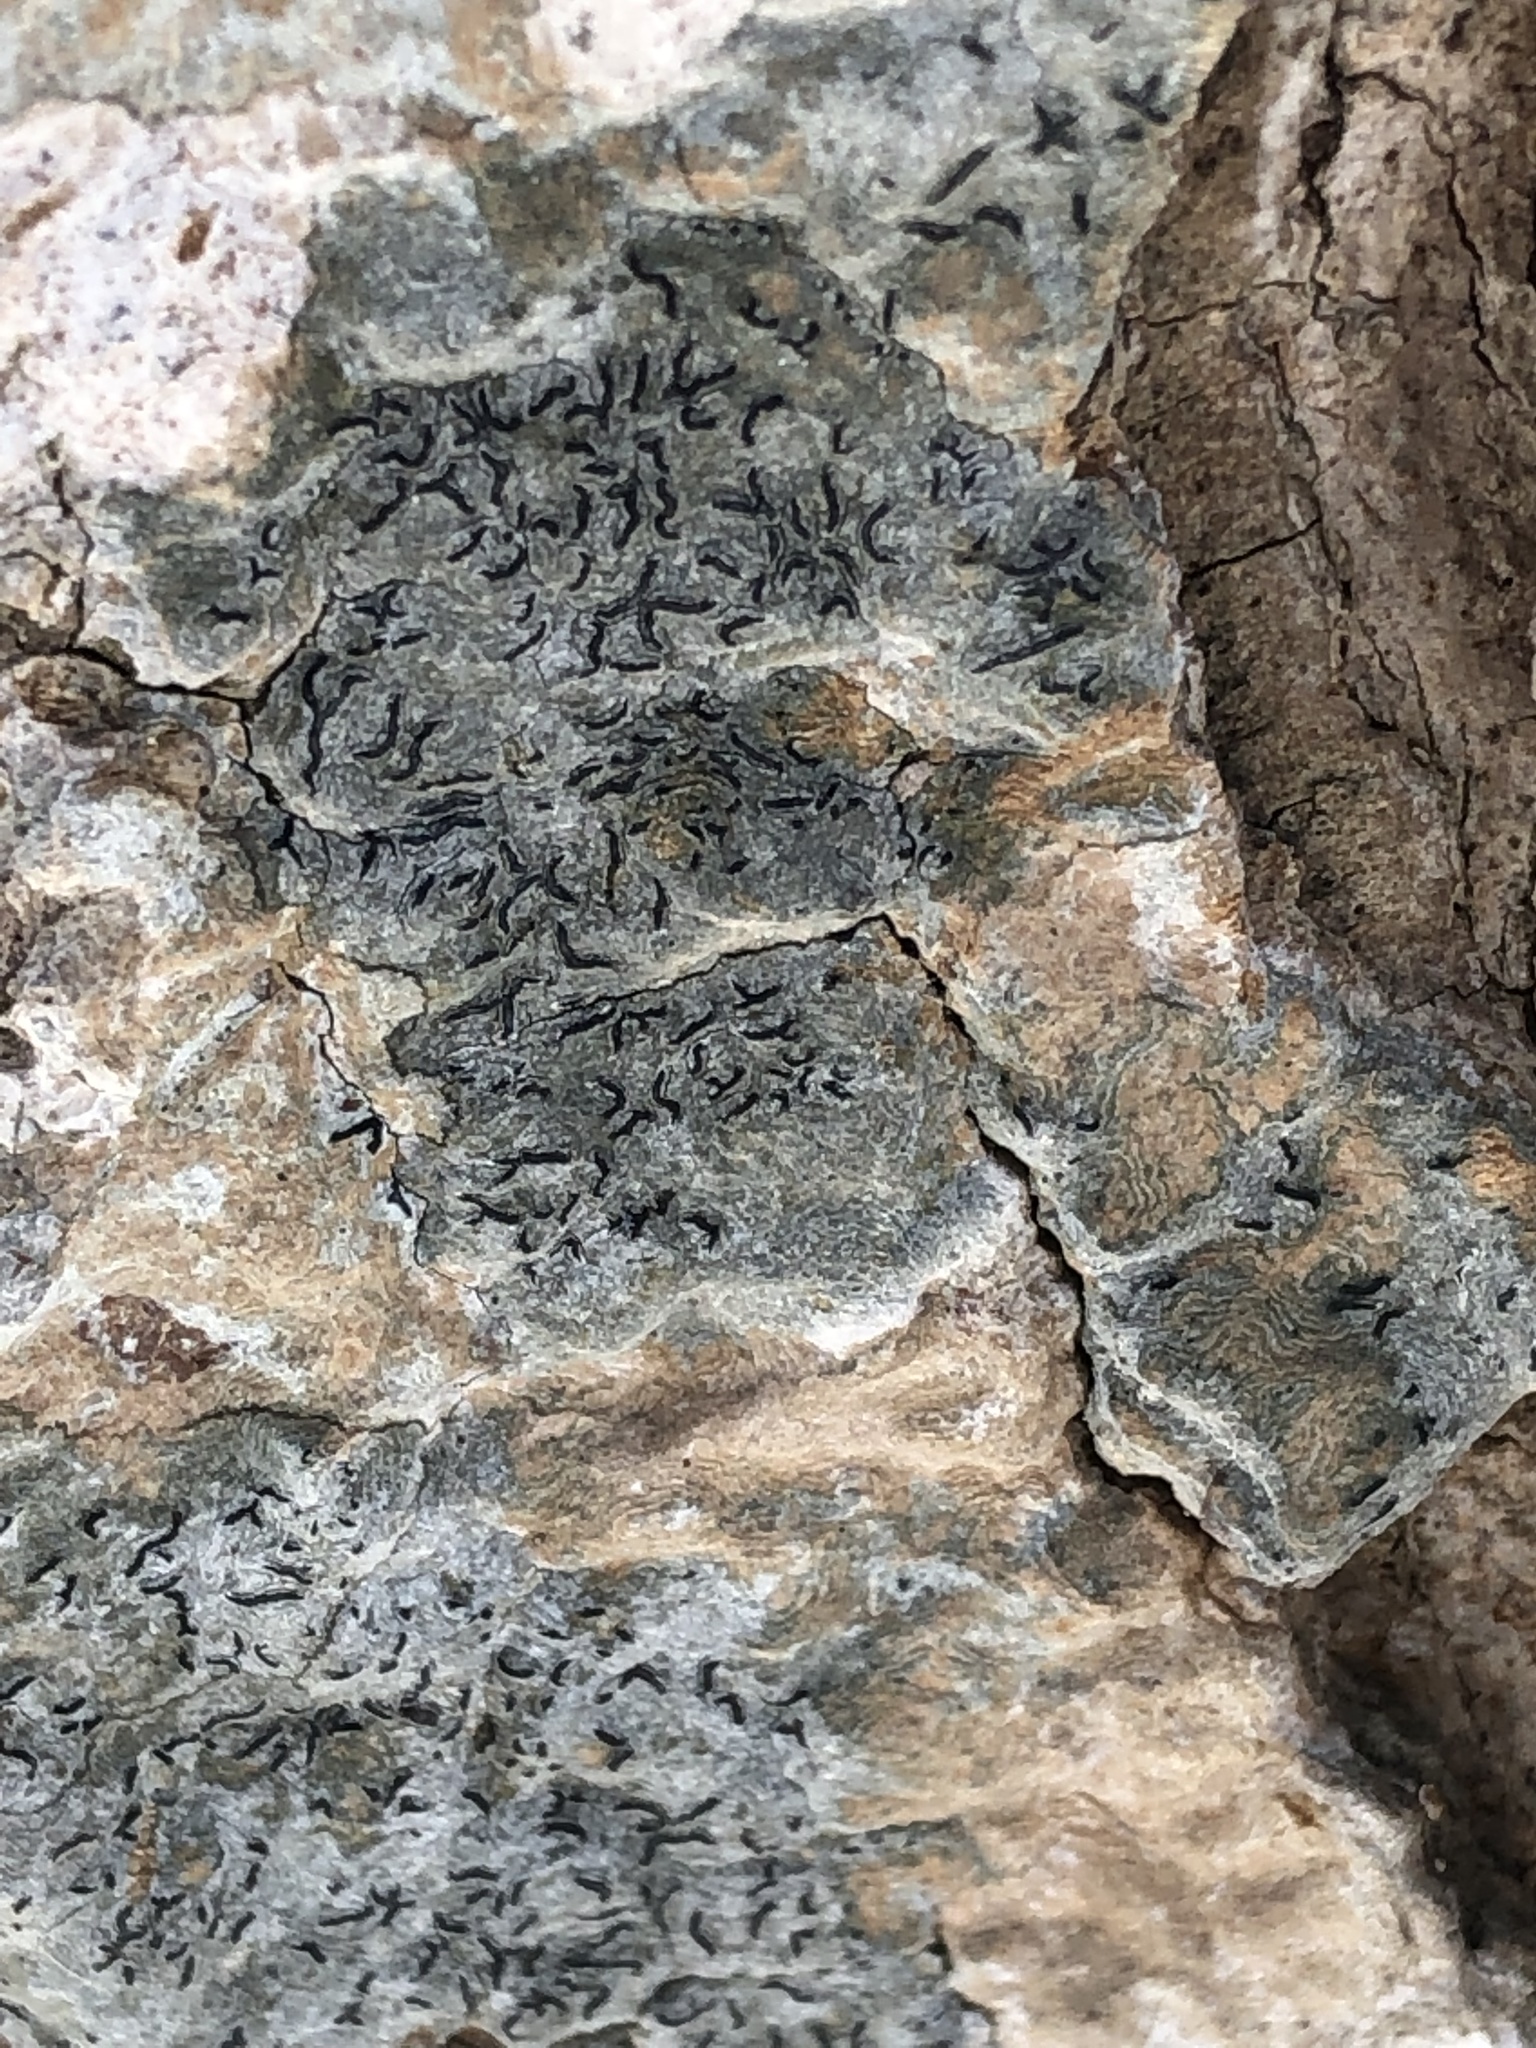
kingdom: Fungi
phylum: Ascomycota
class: Lecanoromycetes
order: Ostropales
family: Graphidaceae
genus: Graphis
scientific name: Graphis scripta
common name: Script lichen
